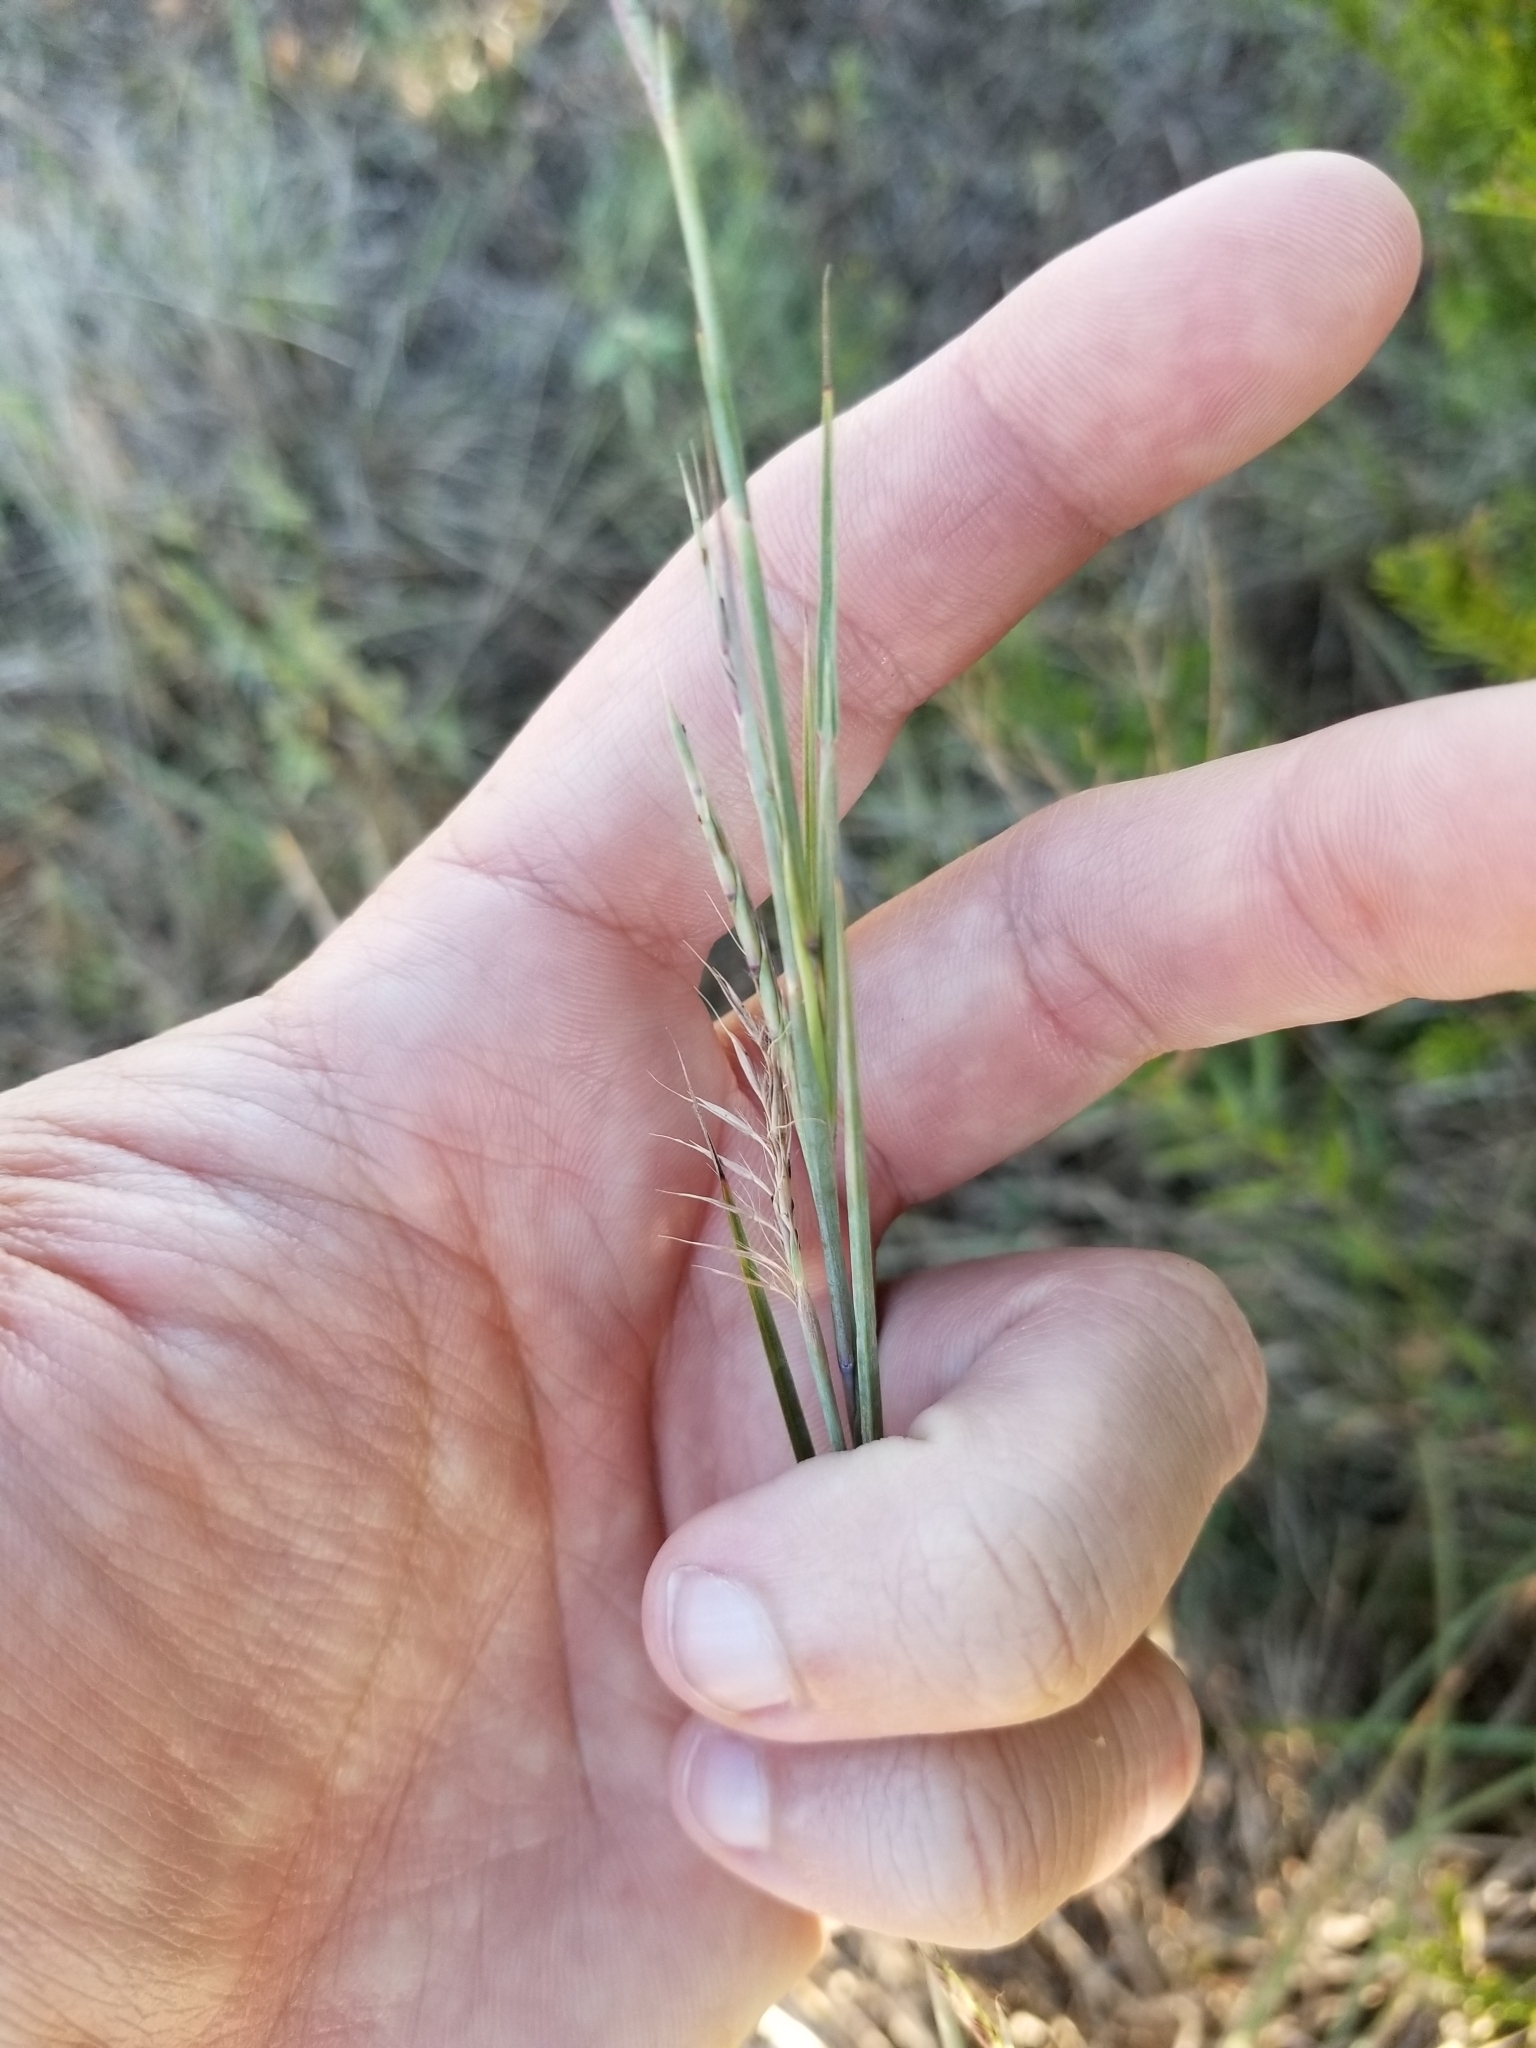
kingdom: Plantae
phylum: Tracheophyta
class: Liliopsida
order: Poales
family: Poaceae
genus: Schizachyrium
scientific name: Schizachyrium scoparium
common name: Little bluestem
